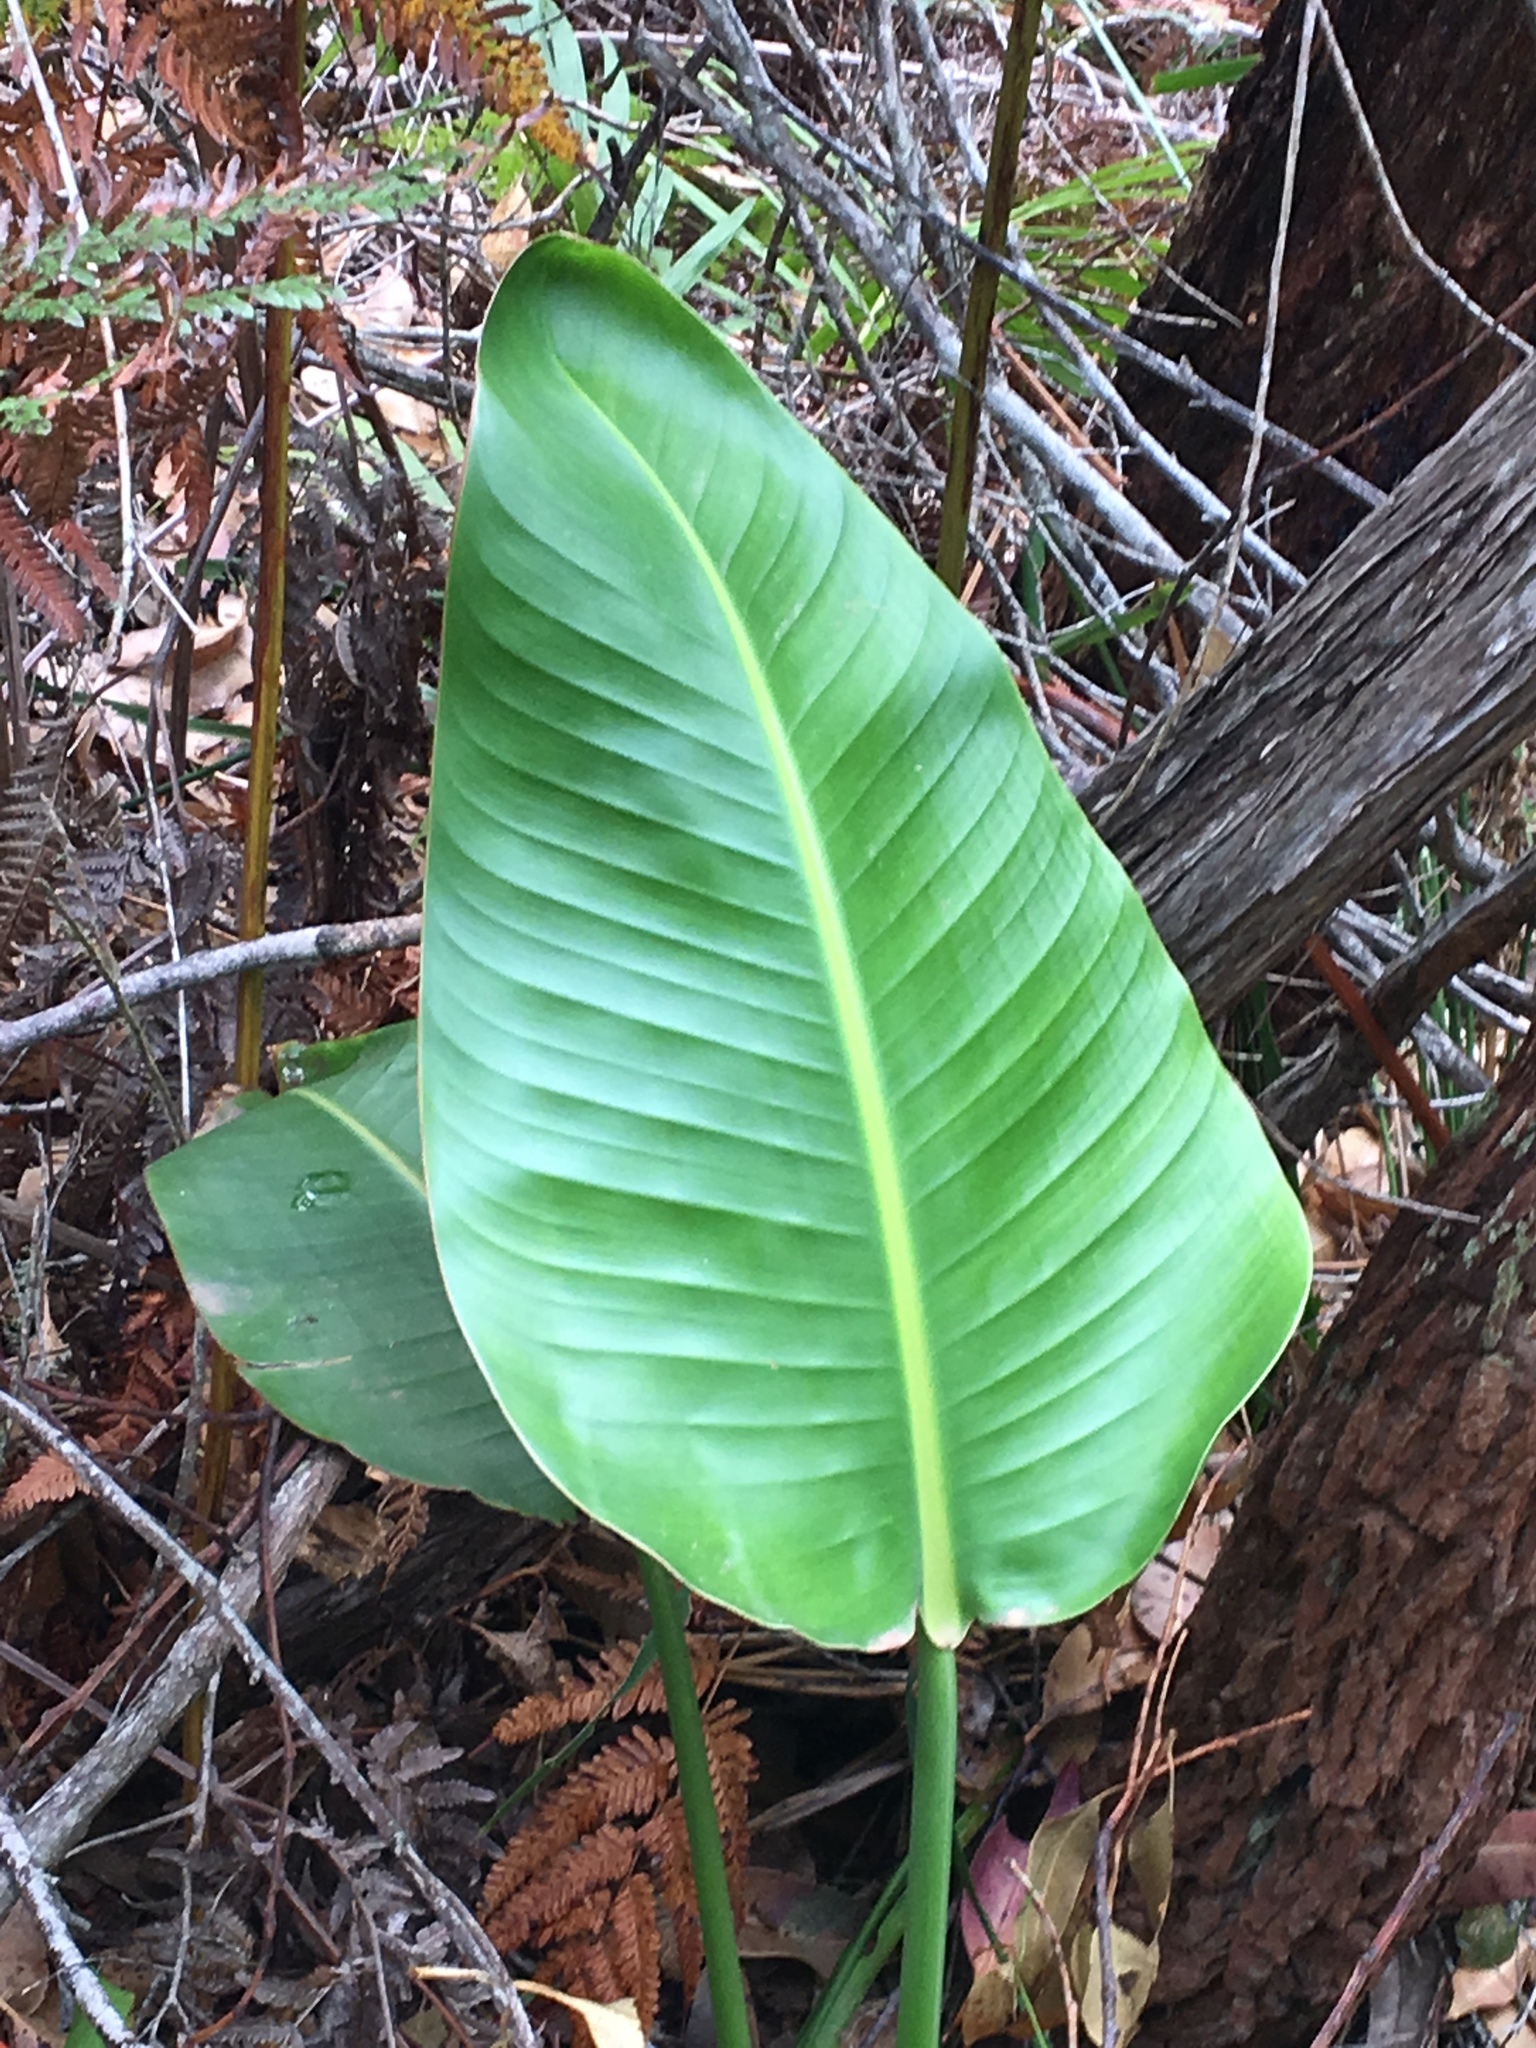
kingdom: Plantae
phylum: Tracheophyta
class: Liliopsida
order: Zingiberales
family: Strelitziaceae
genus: Strelitzia
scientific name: Strelitzia nicolai
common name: Bird-of-paradise tree
